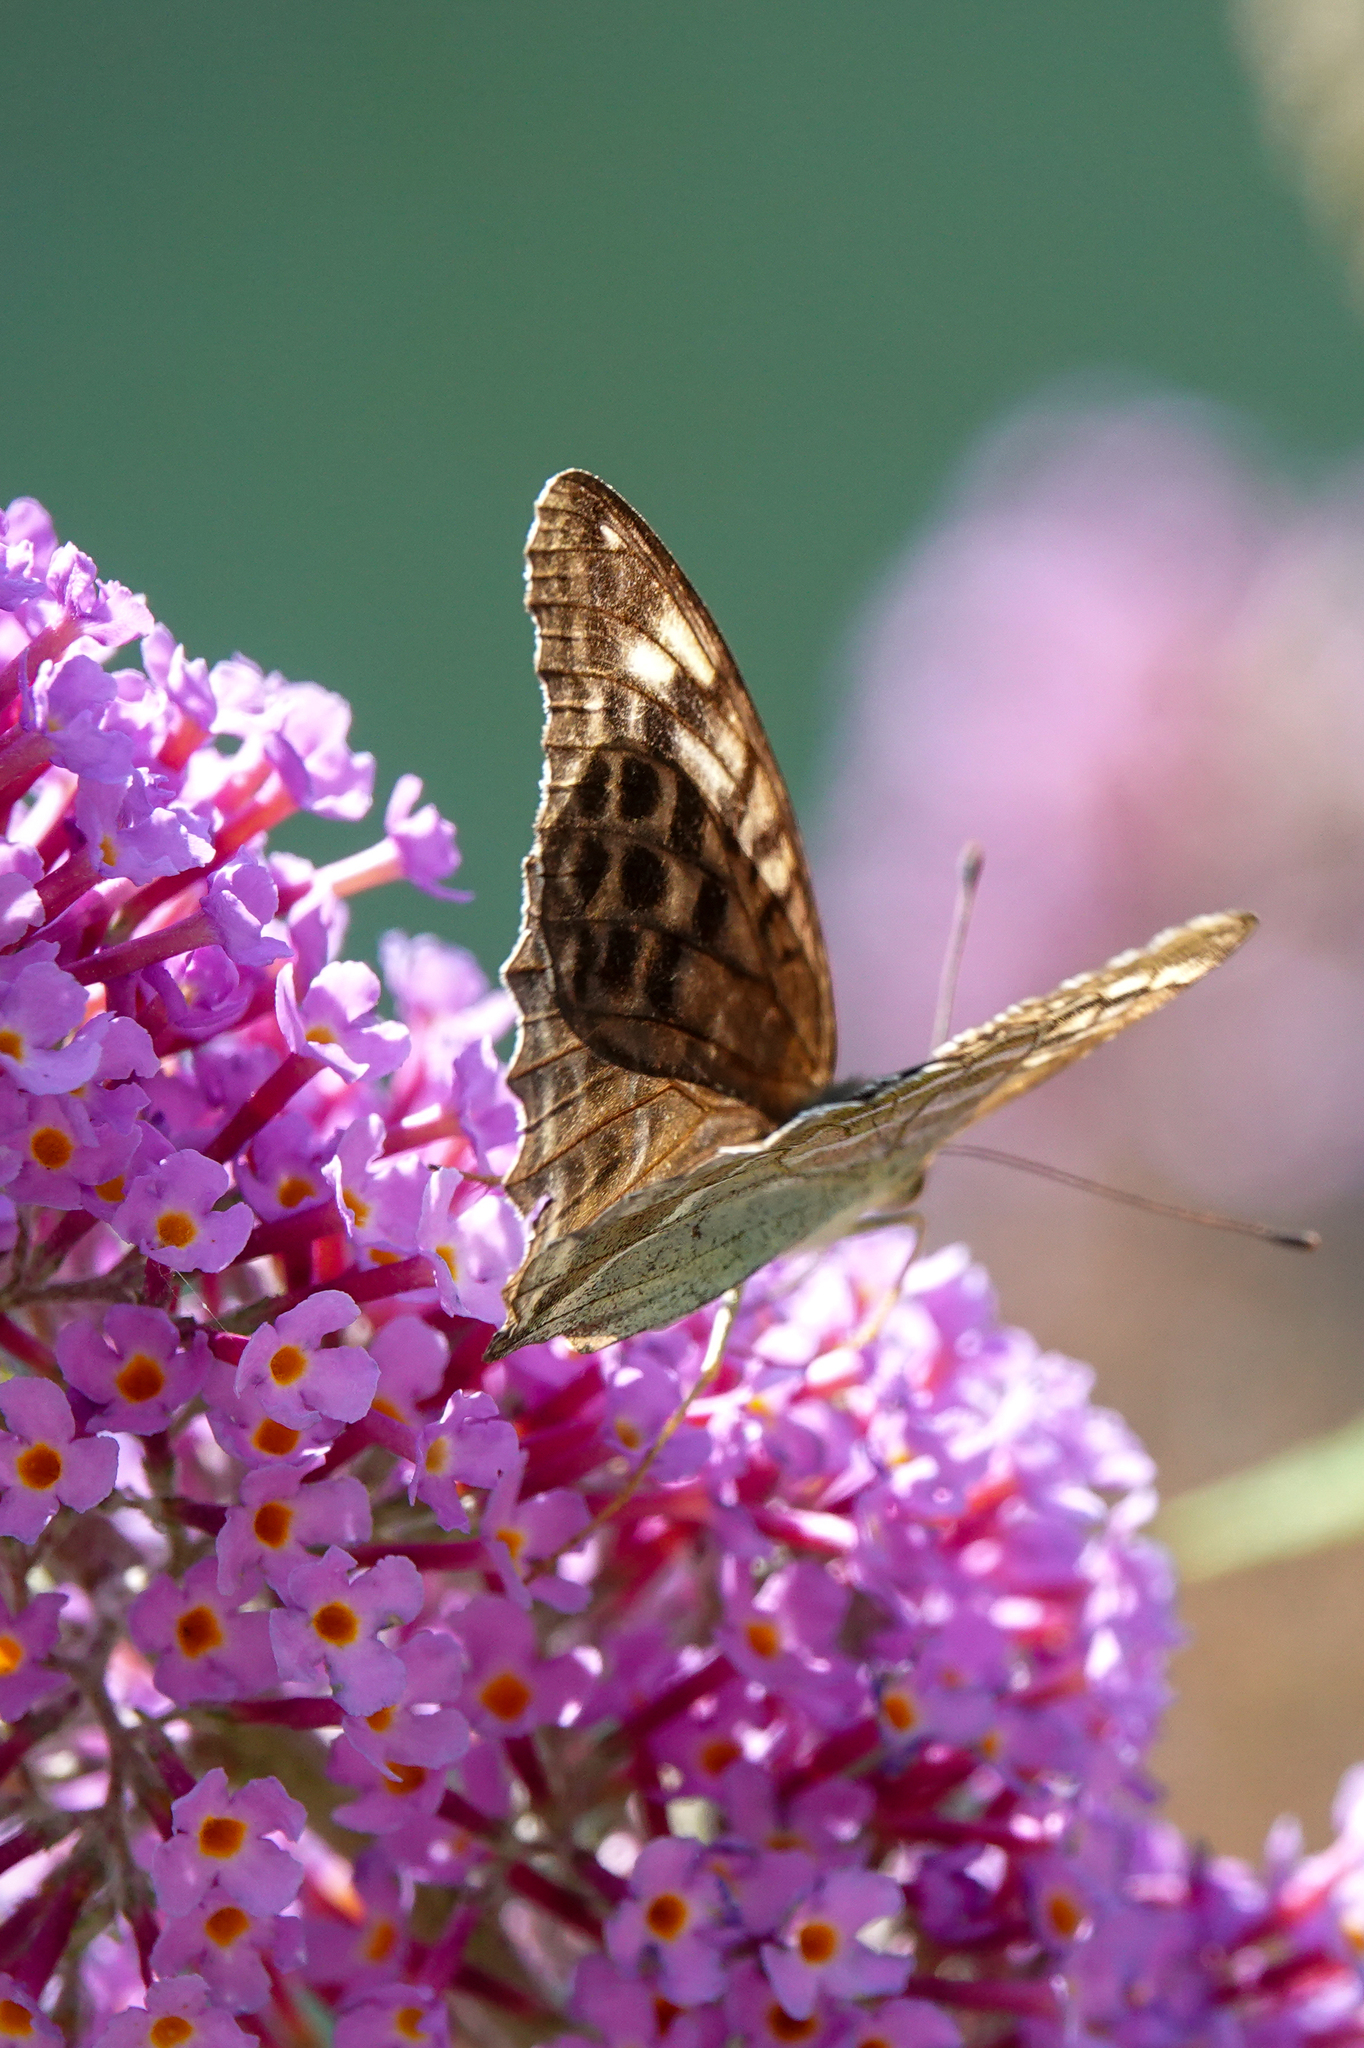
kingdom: Animalia
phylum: Arthropoda
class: Insecta
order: Lepidoptera
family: Nymphalidae
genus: Argynnis
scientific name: Argynnis paphia
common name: Silver-washed fritillary
